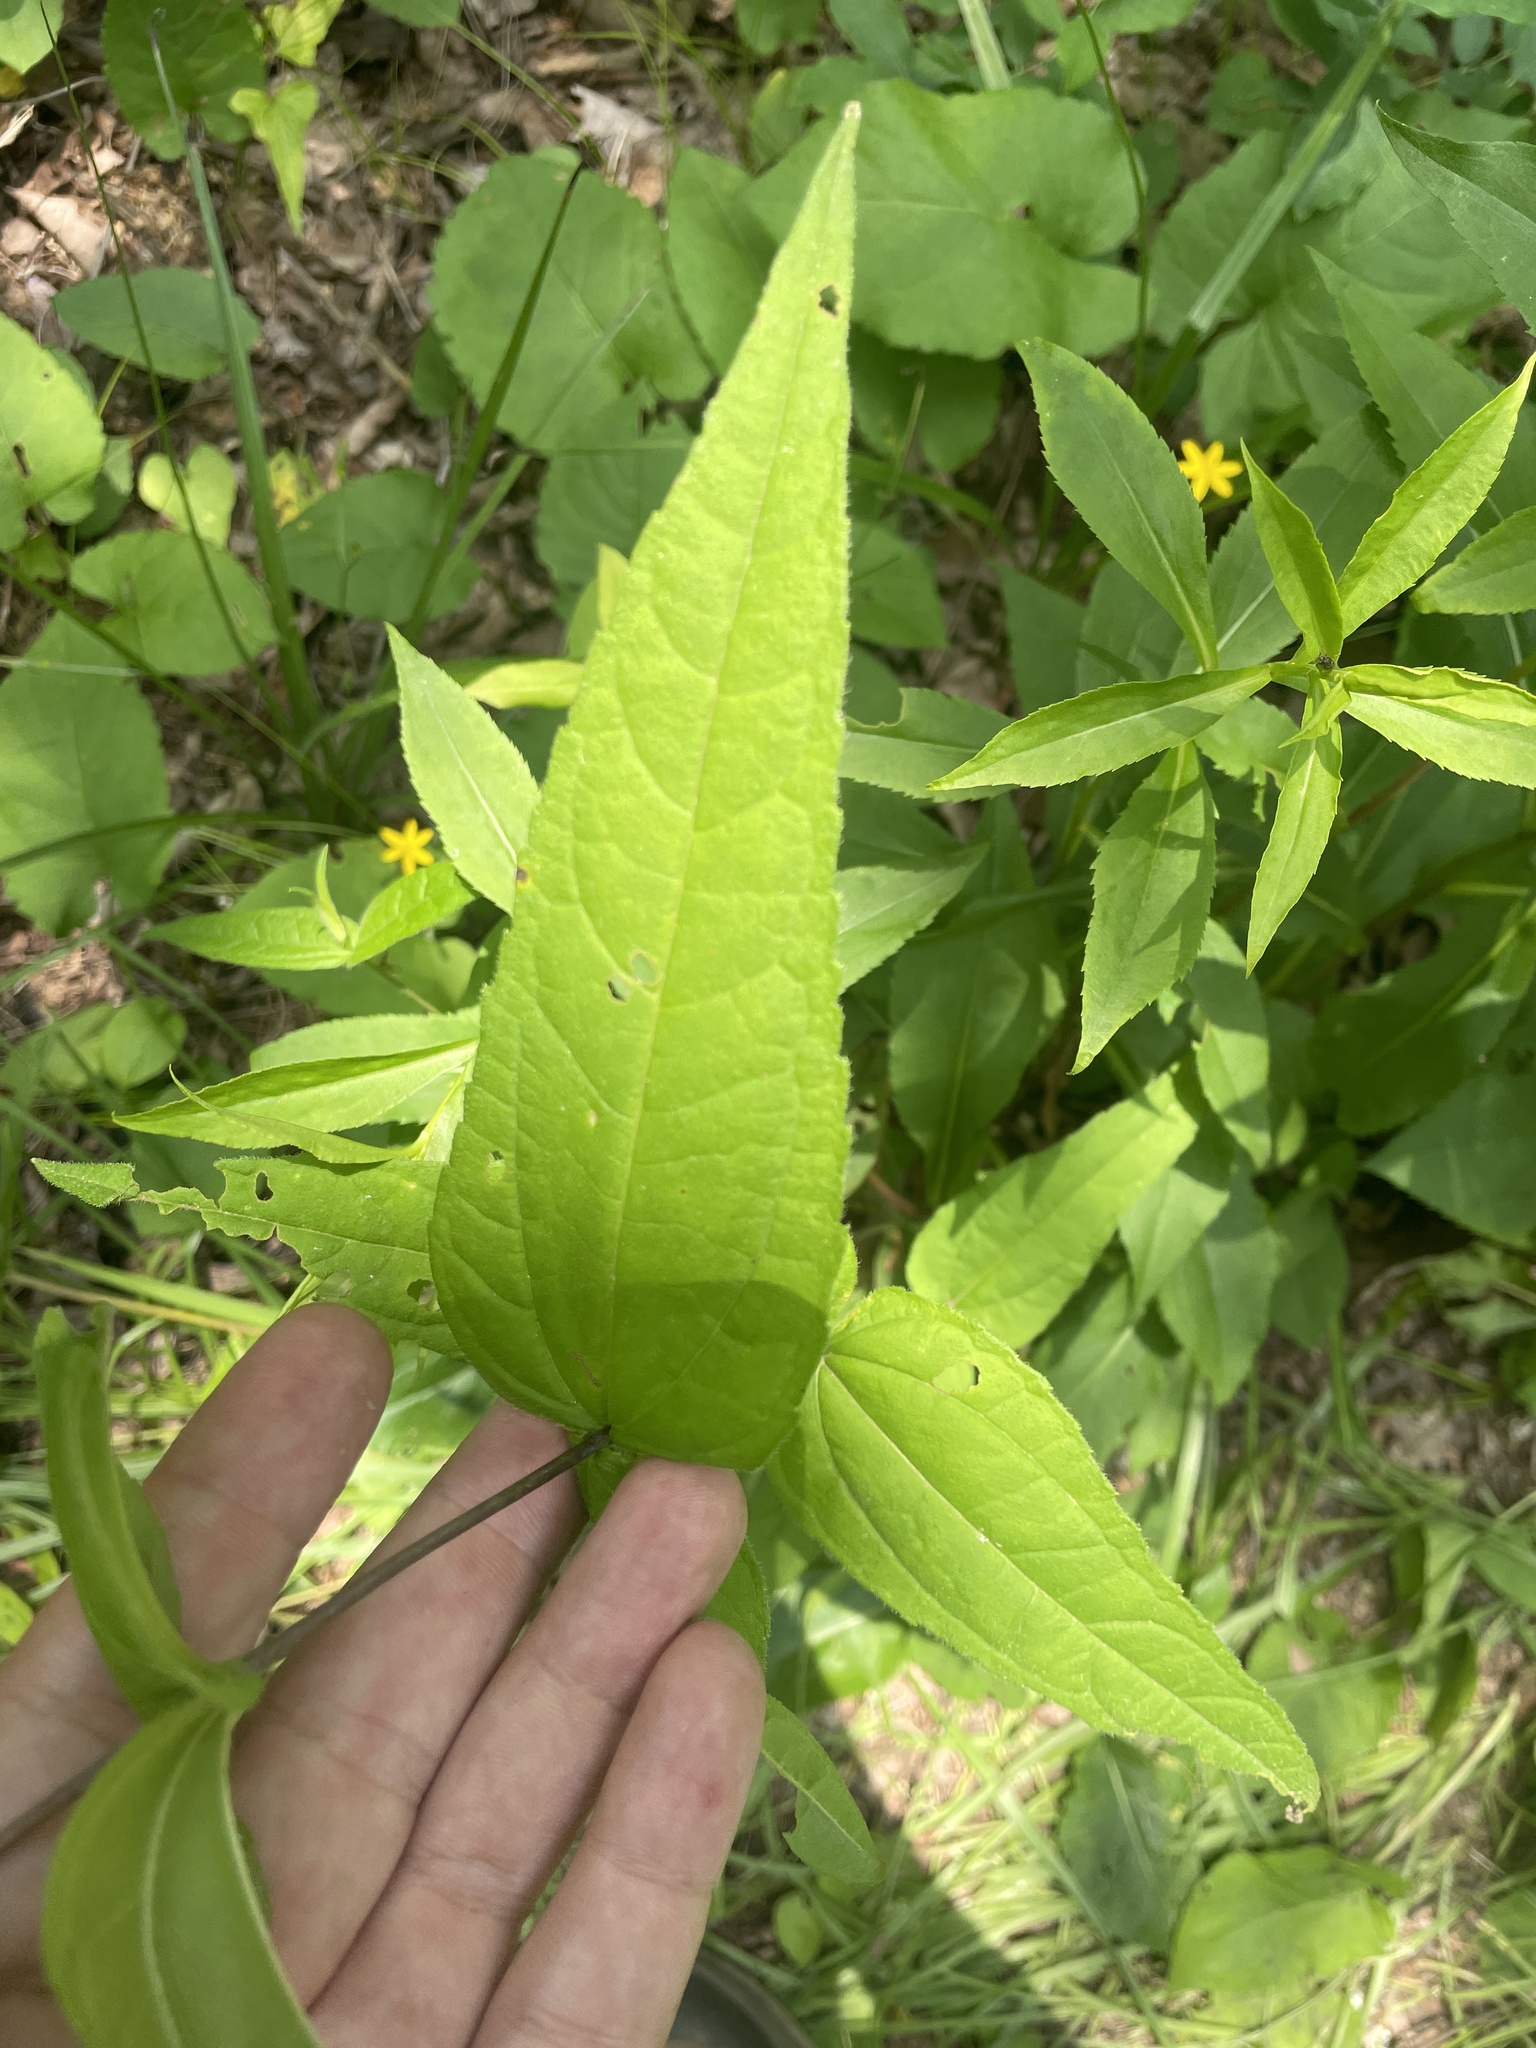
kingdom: Plantae
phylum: Tracheophyta
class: Magnoliopsida
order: Asterales
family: Asteraceae
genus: Helianthus
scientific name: Helianthus divaricatus
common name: Divergent sunflower
